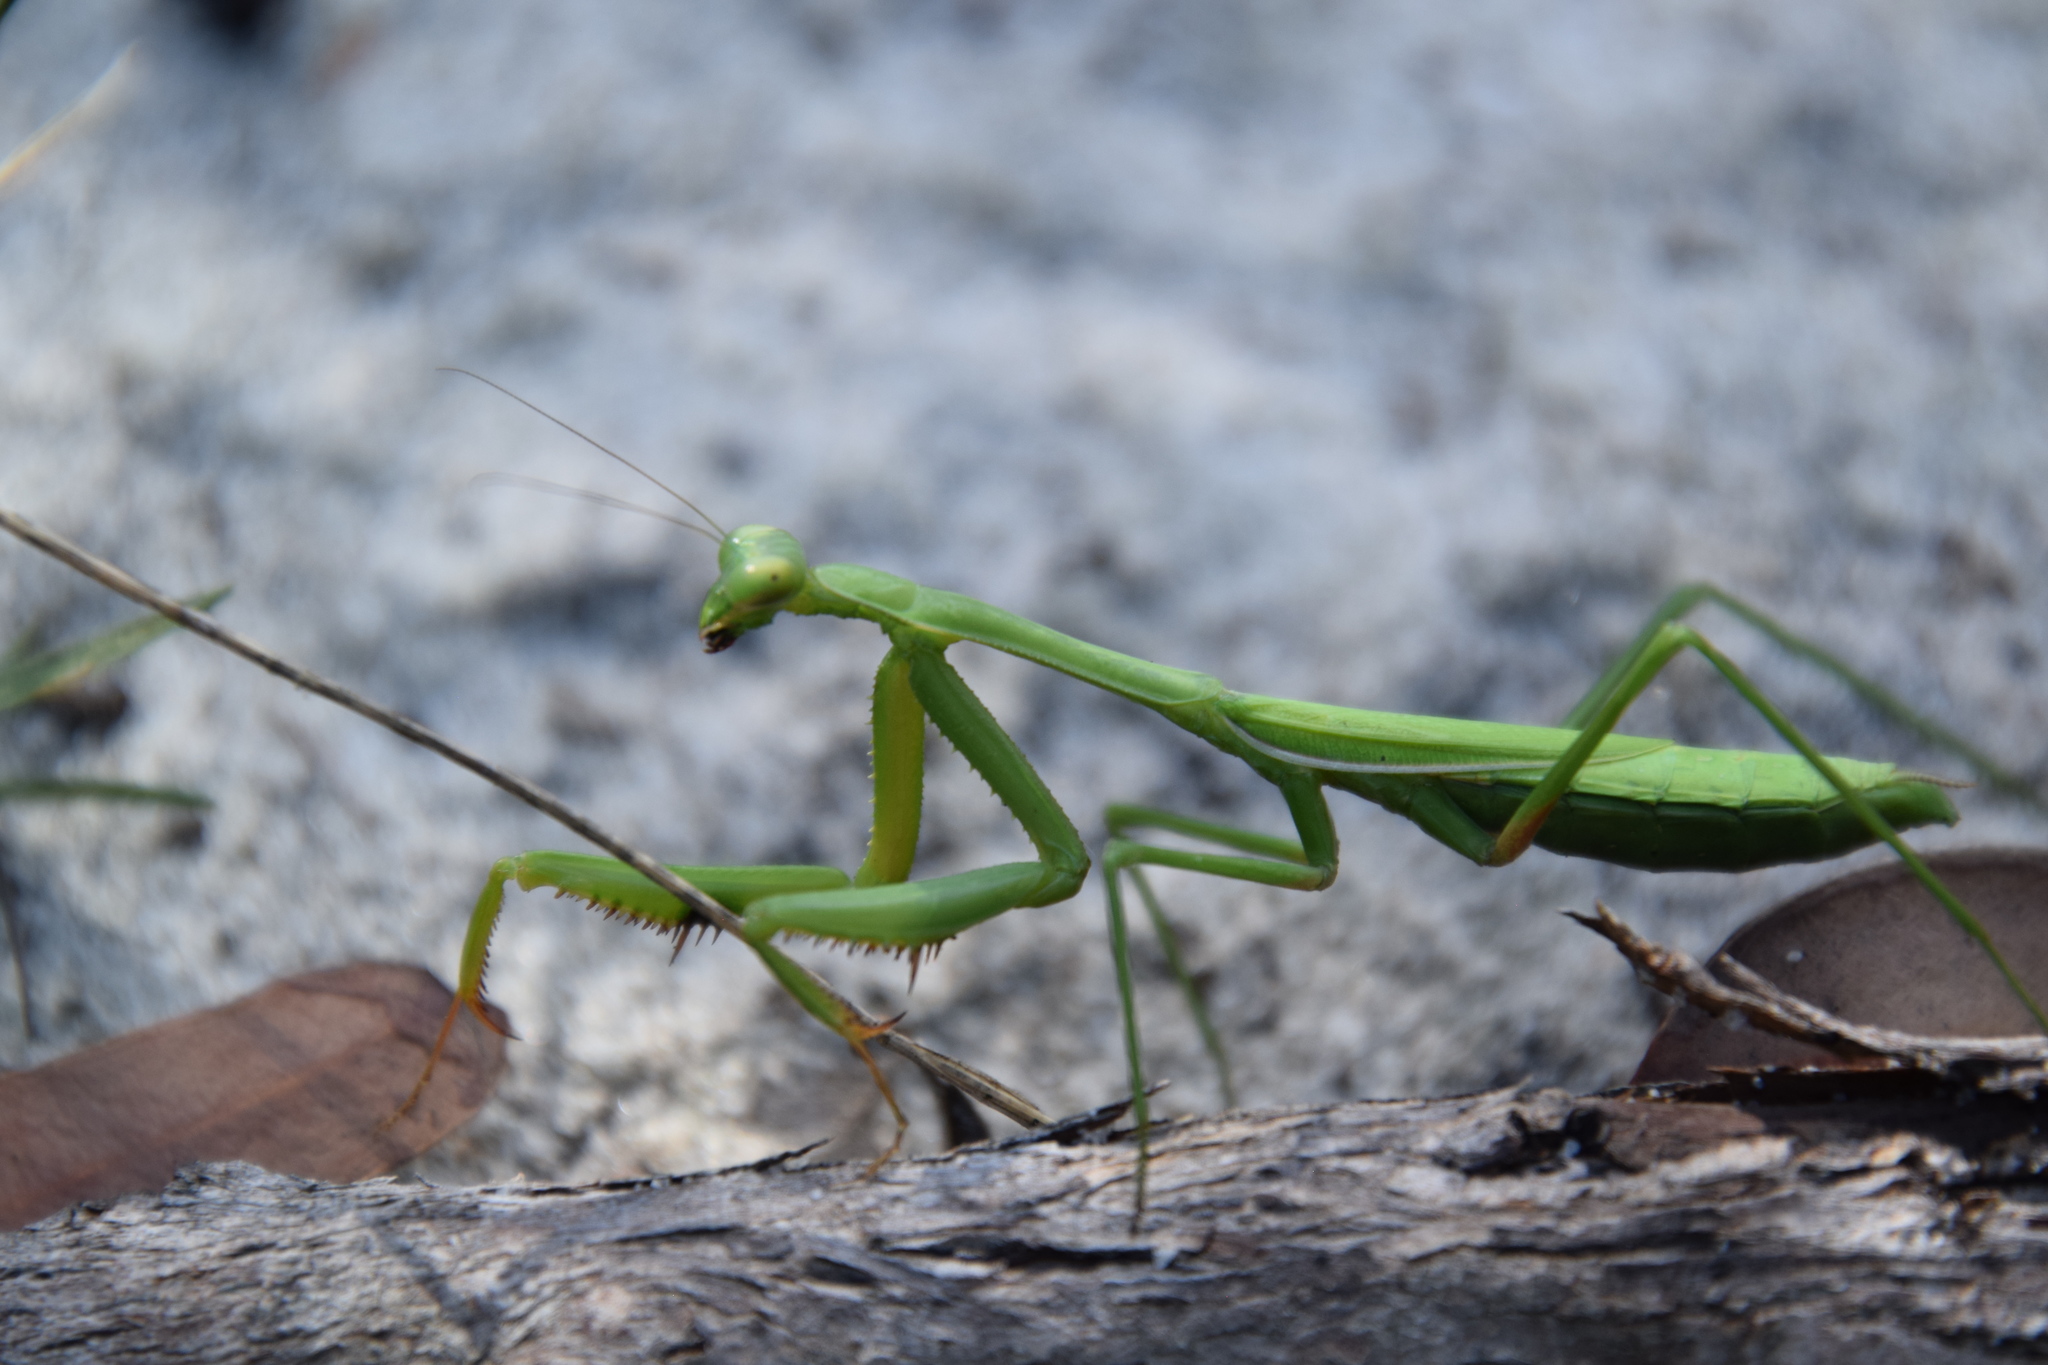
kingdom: Animalia
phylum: Arthropoda
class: Insecta
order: Mantodea
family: Mantidae
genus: Pseudomantis
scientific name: Pseudomantis albofimbriata
